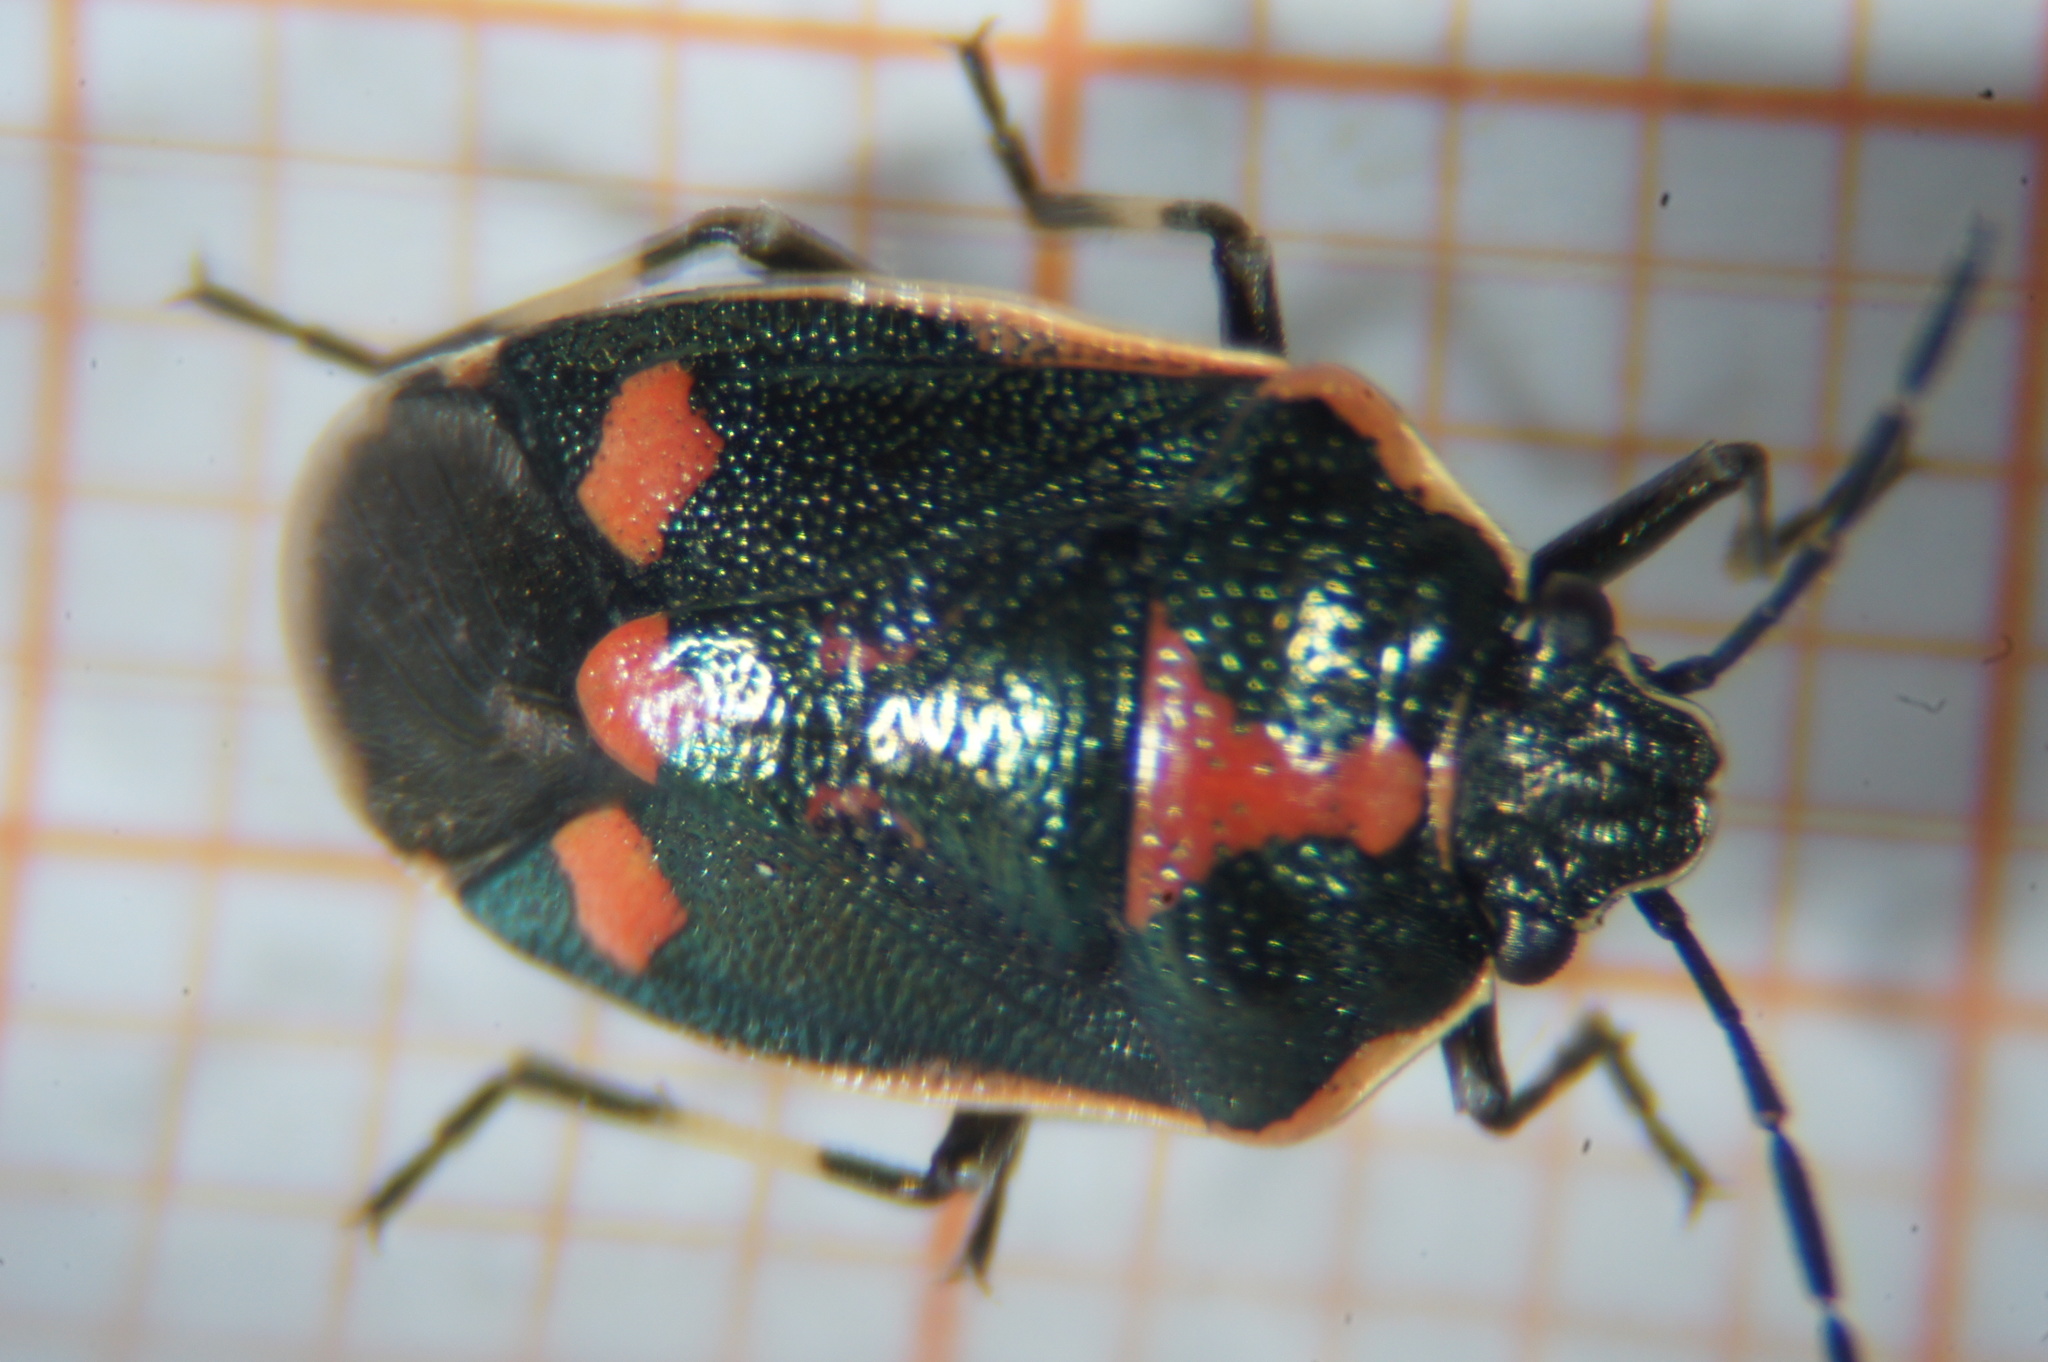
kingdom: Animalia
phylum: Arthropoda
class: Insecta
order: Hemiptera
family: Pentatomidae
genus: Eurydema
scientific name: Eurydema oleracea
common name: Cabbage bug
